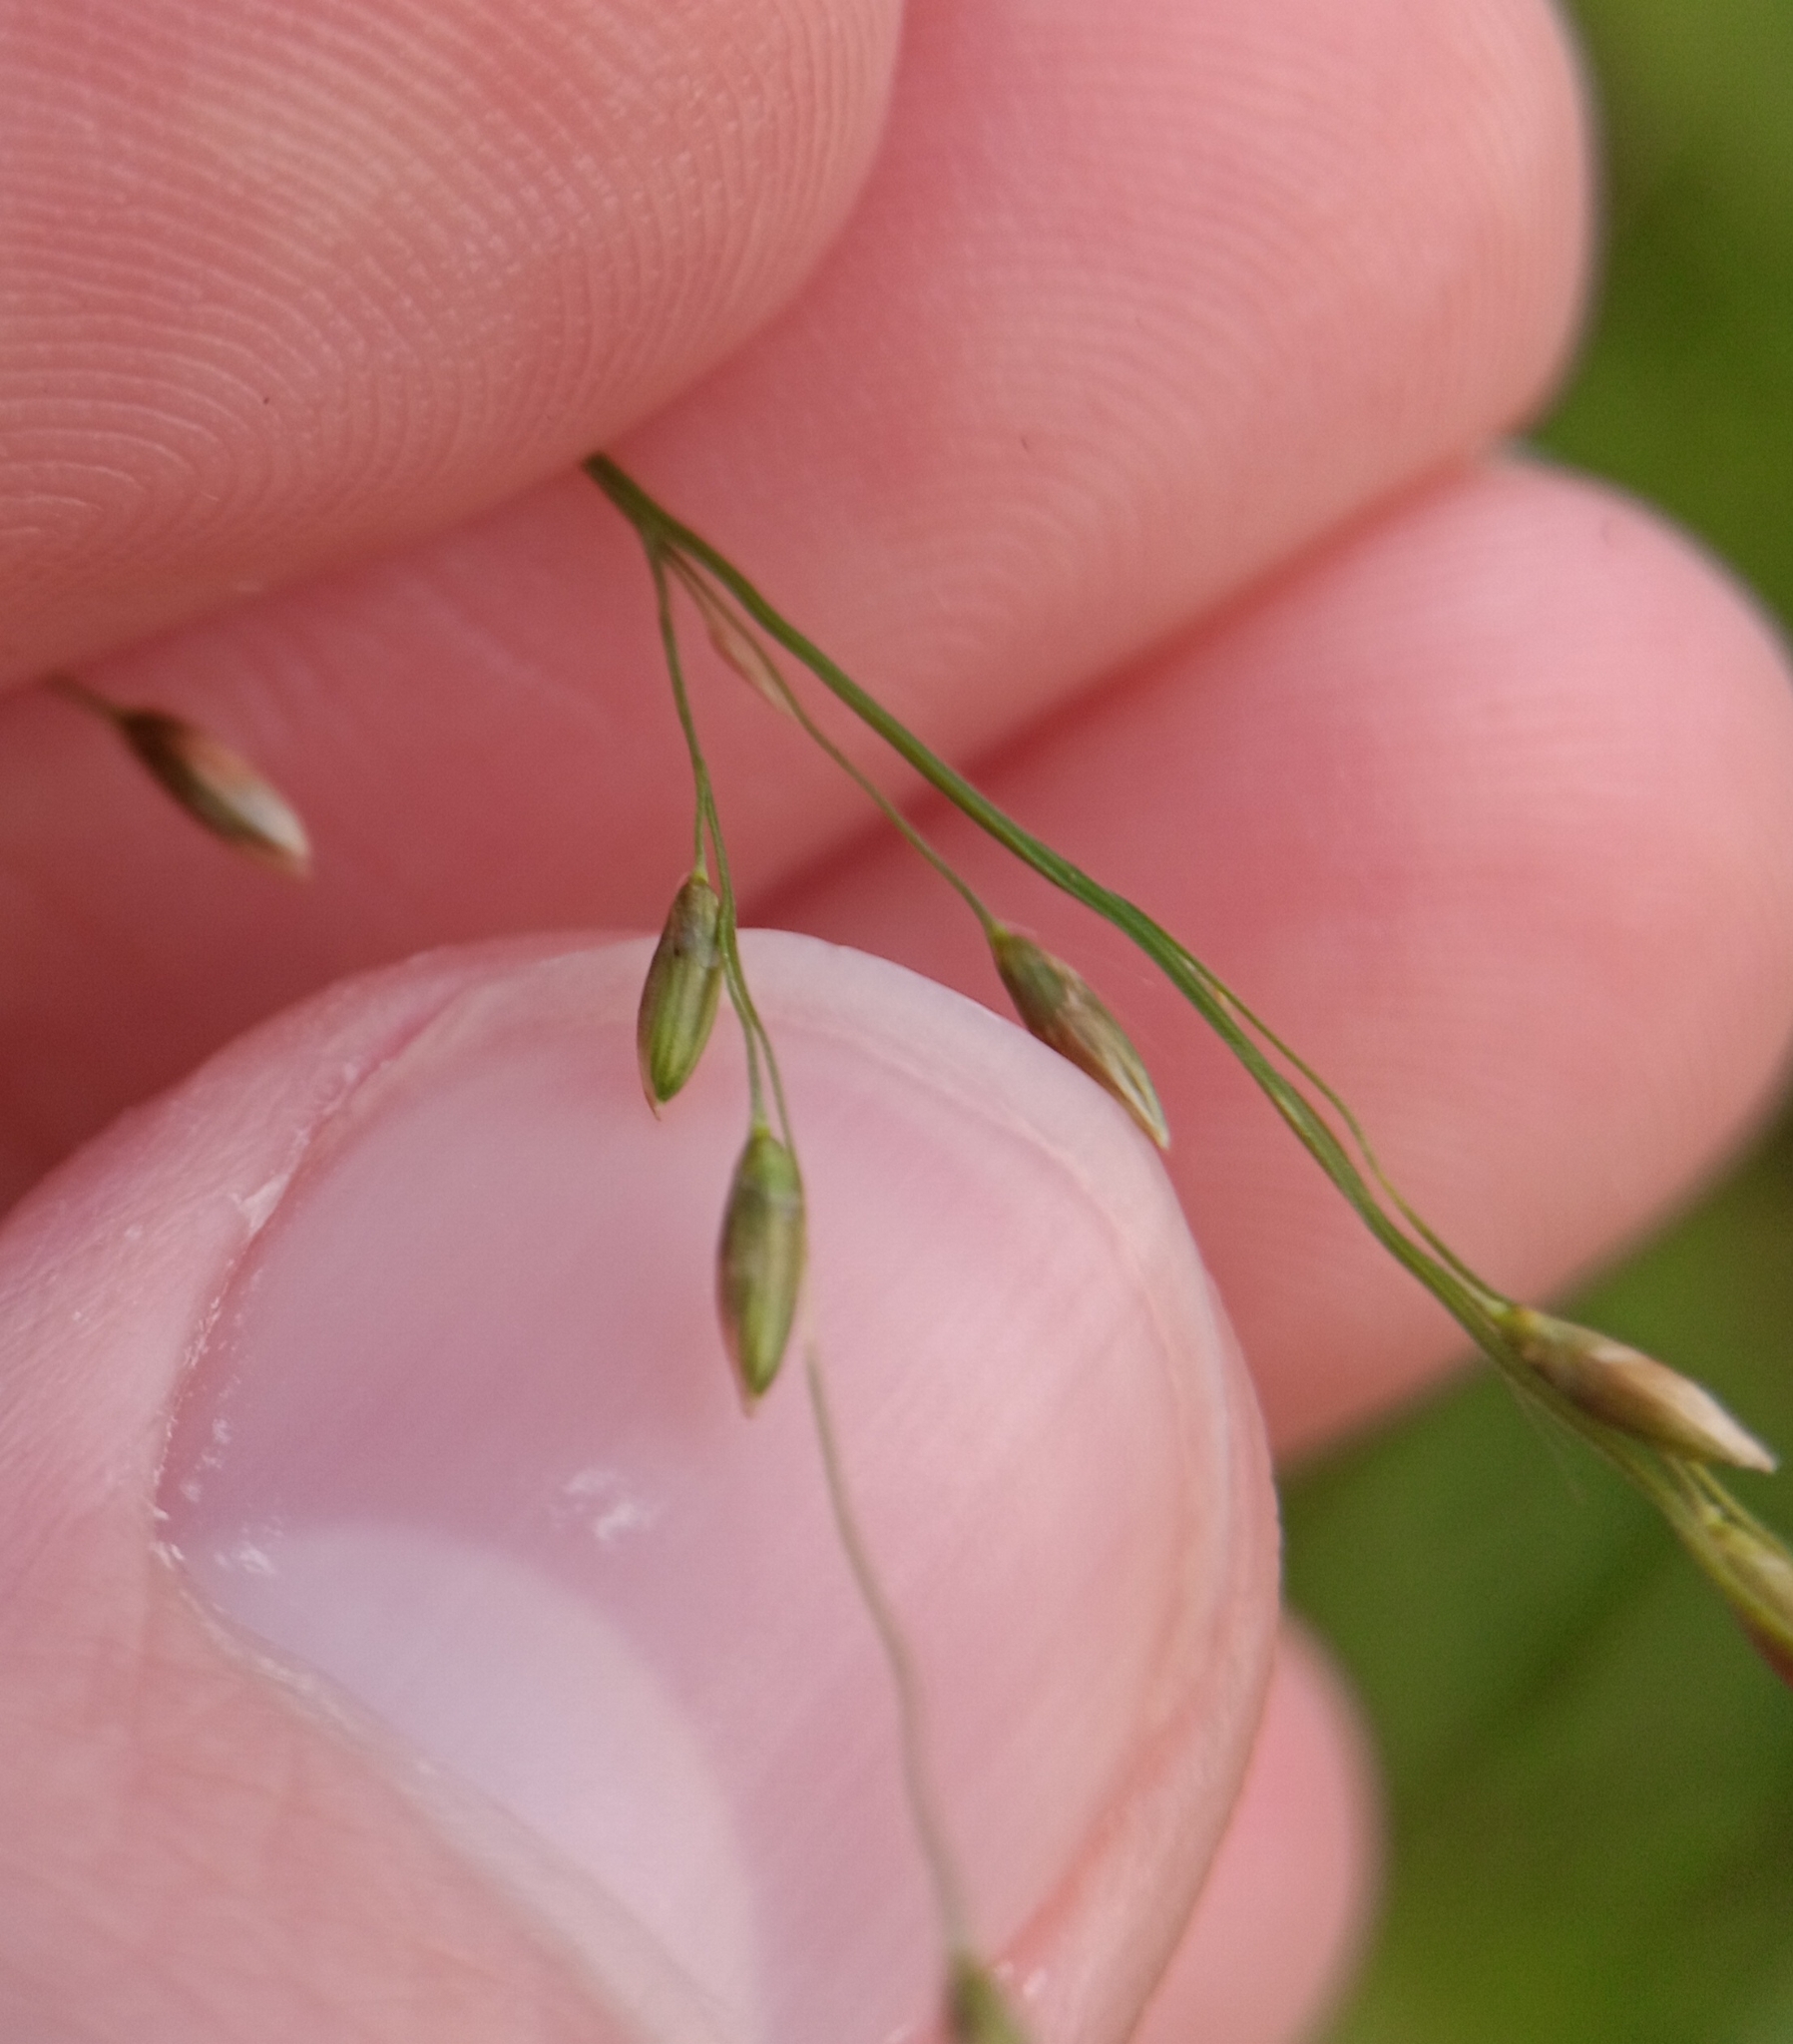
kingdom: Plantae
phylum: Tracheophyta
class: Liliopsida
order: Poales
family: Poaceae
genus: Megathyrsus
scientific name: Megathyrsus maximus
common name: Guineagrass
